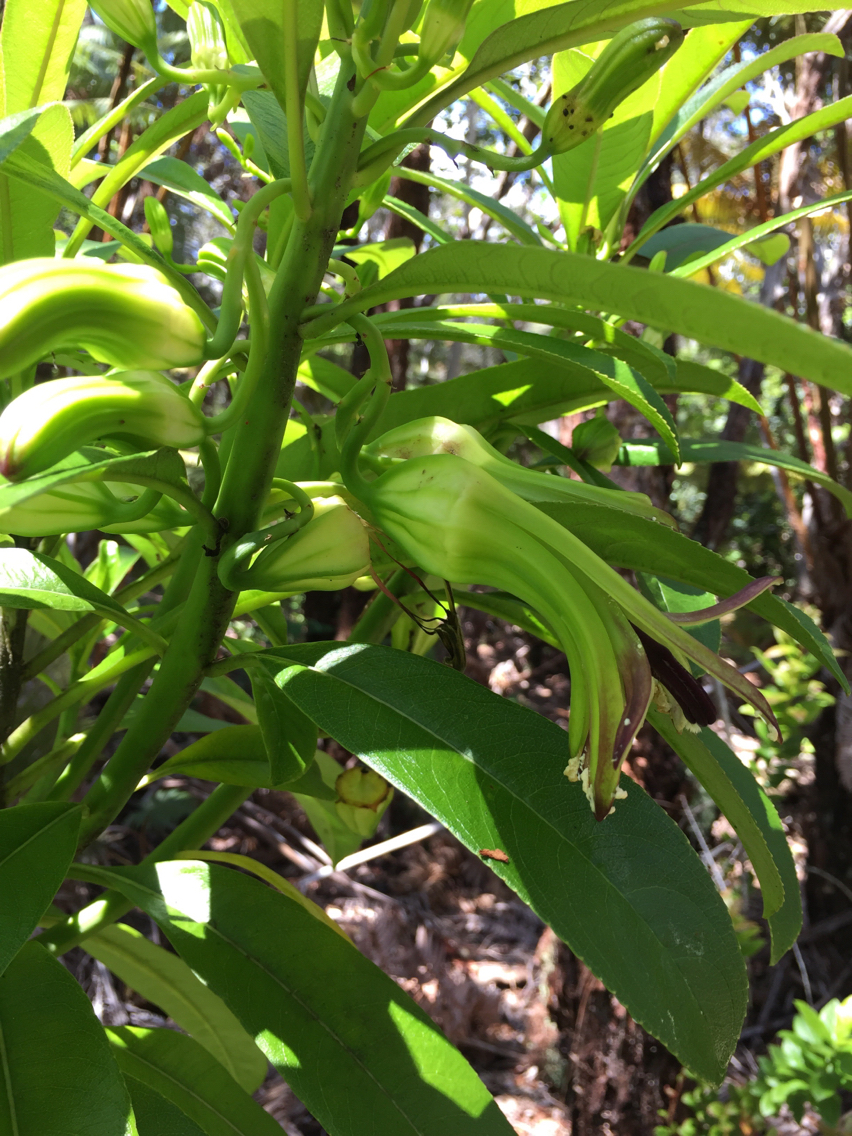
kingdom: Plantae
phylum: Tracheophyta
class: Magnoliopsida
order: Asterales
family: Campanulaceae
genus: Clermontia
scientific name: Clermontia hawaiiensis
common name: Hawaii clermontia
